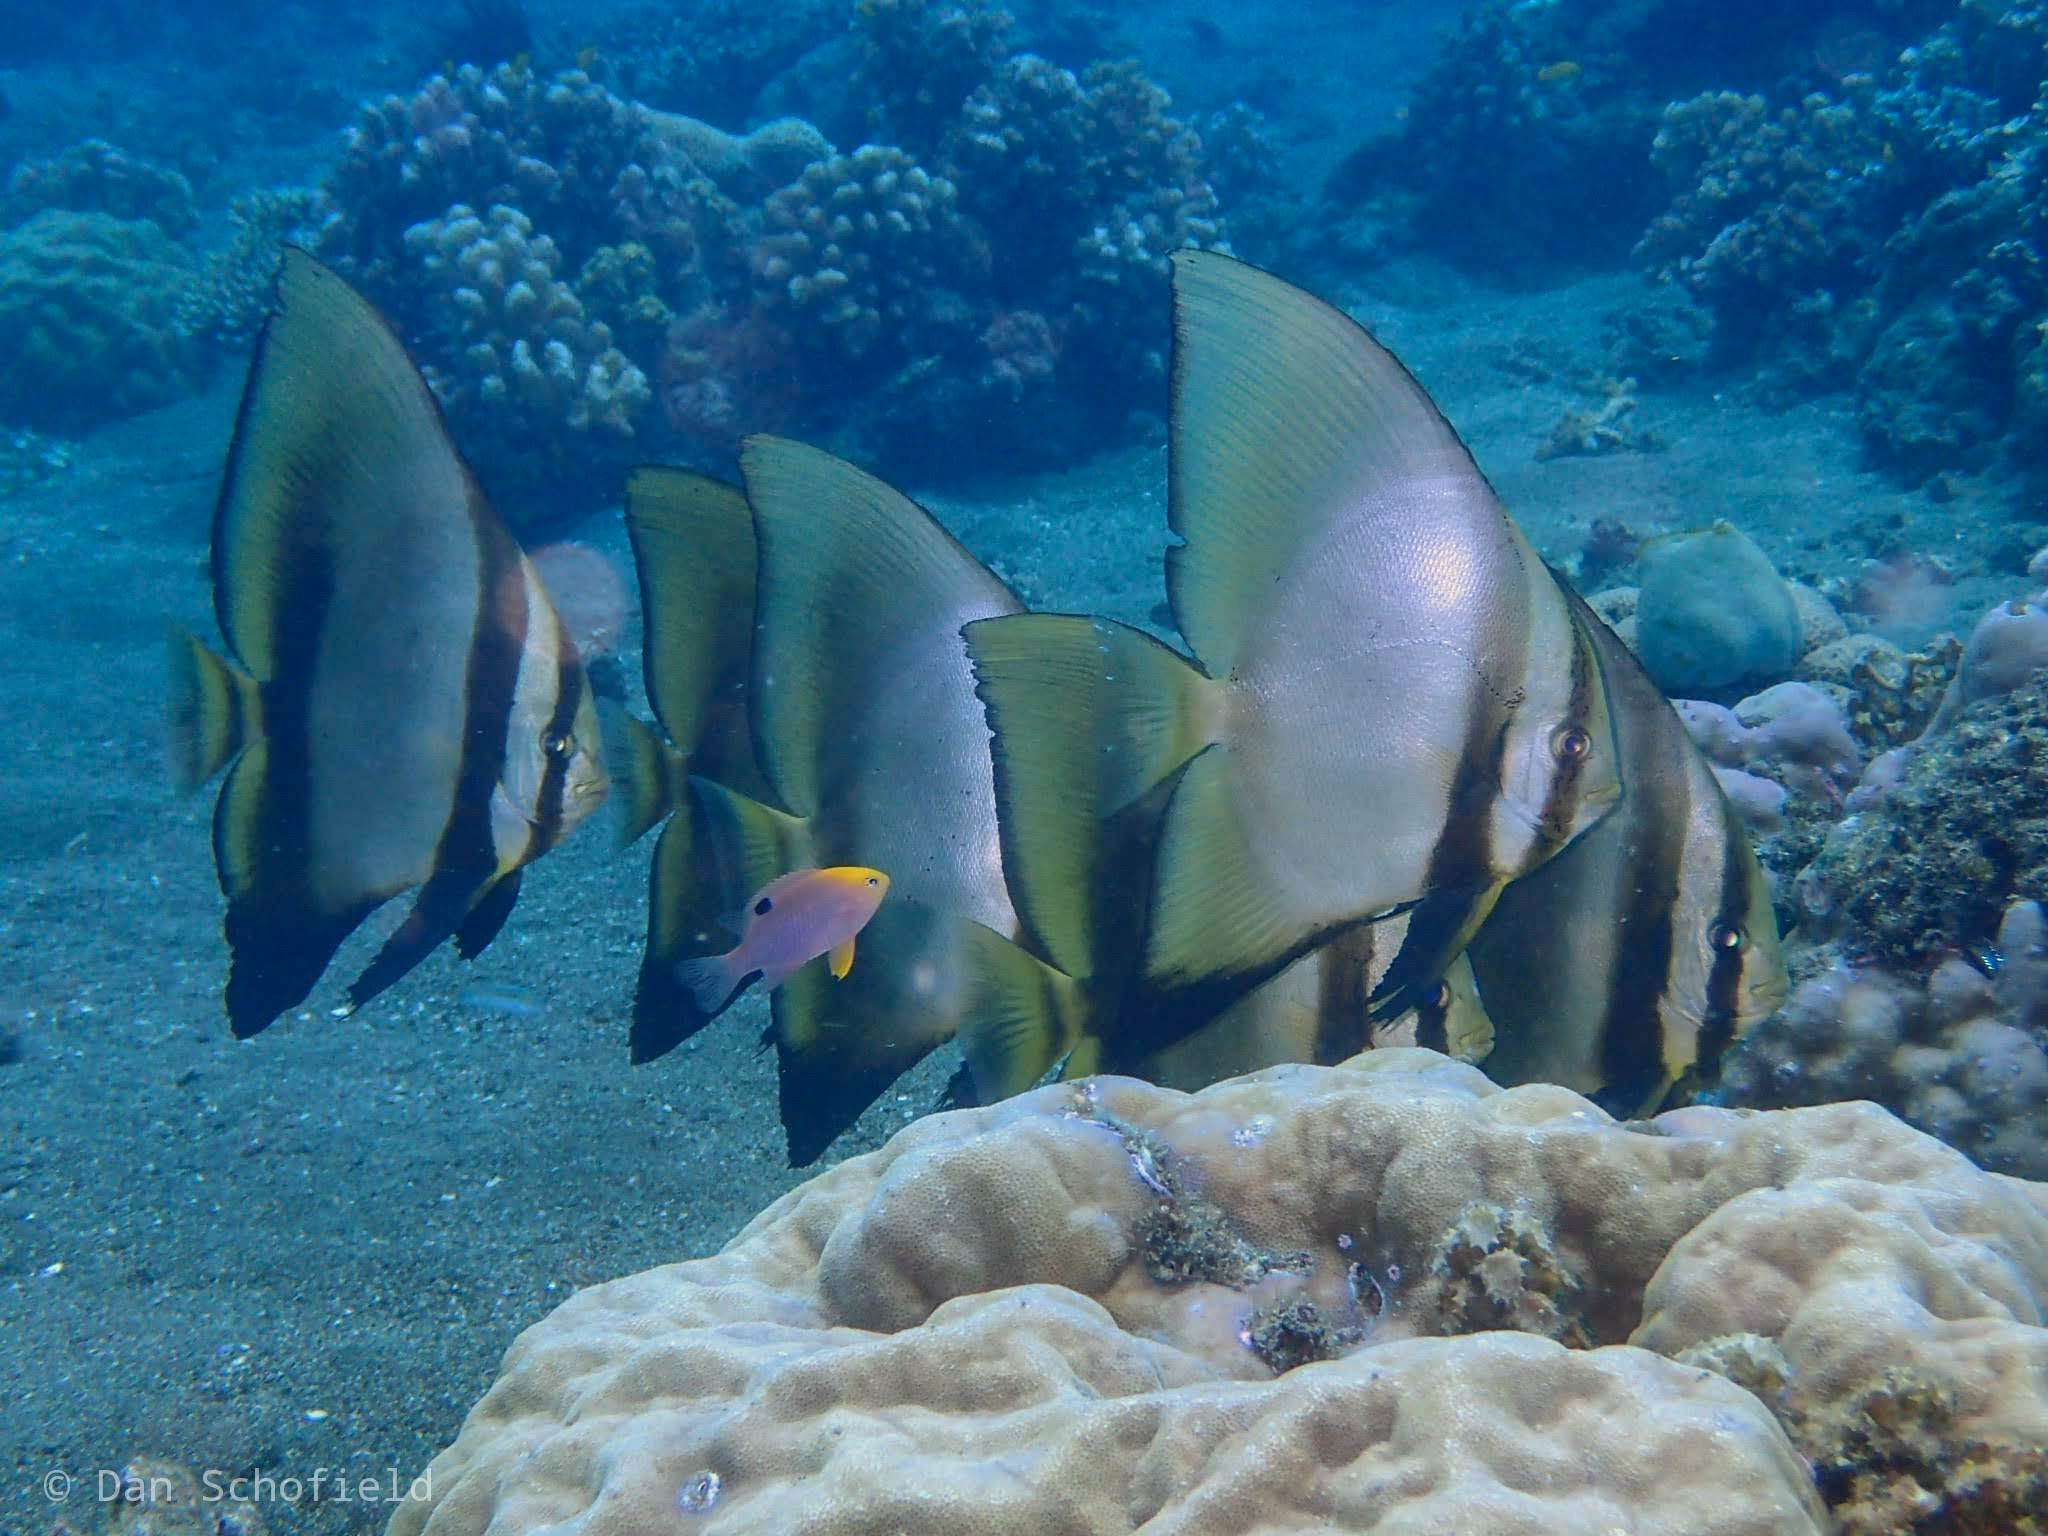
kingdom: Animalia
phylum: Chordata
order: Perciformes
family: Ephippidae
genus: Platax
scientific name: Platax teira
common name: Longfin baitfish
